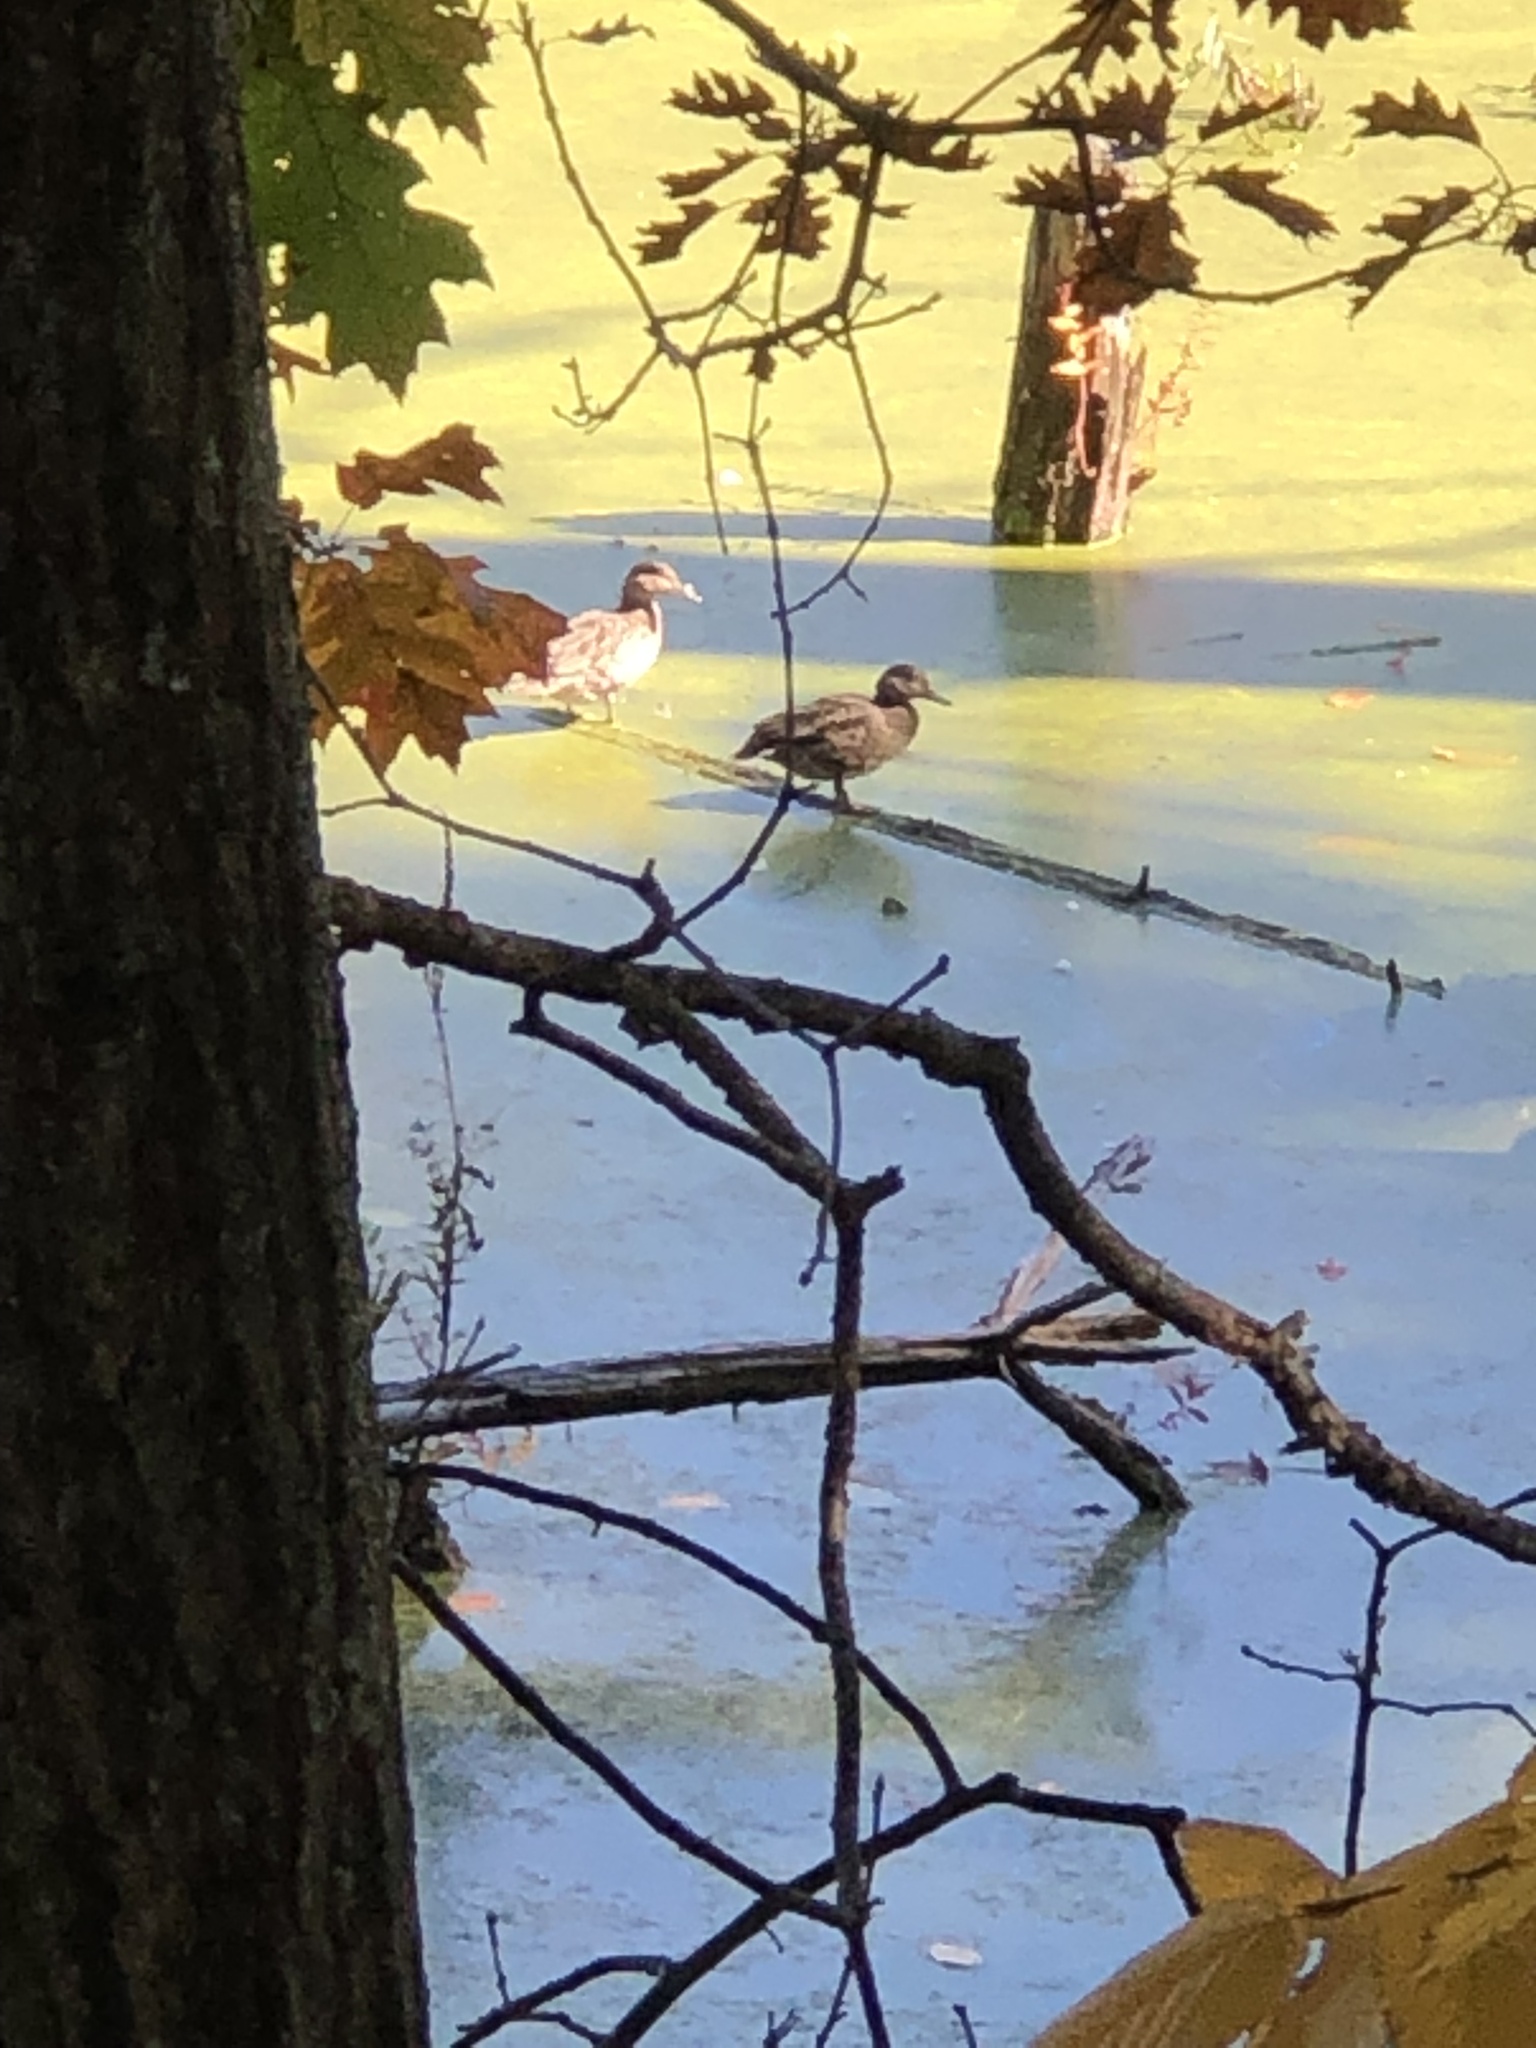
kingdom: Animalia
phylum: Chordata
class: Aves
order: Anseriformes
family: Anatidae
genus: Anas
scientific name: Anas platyrhynchos
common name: Mallard
